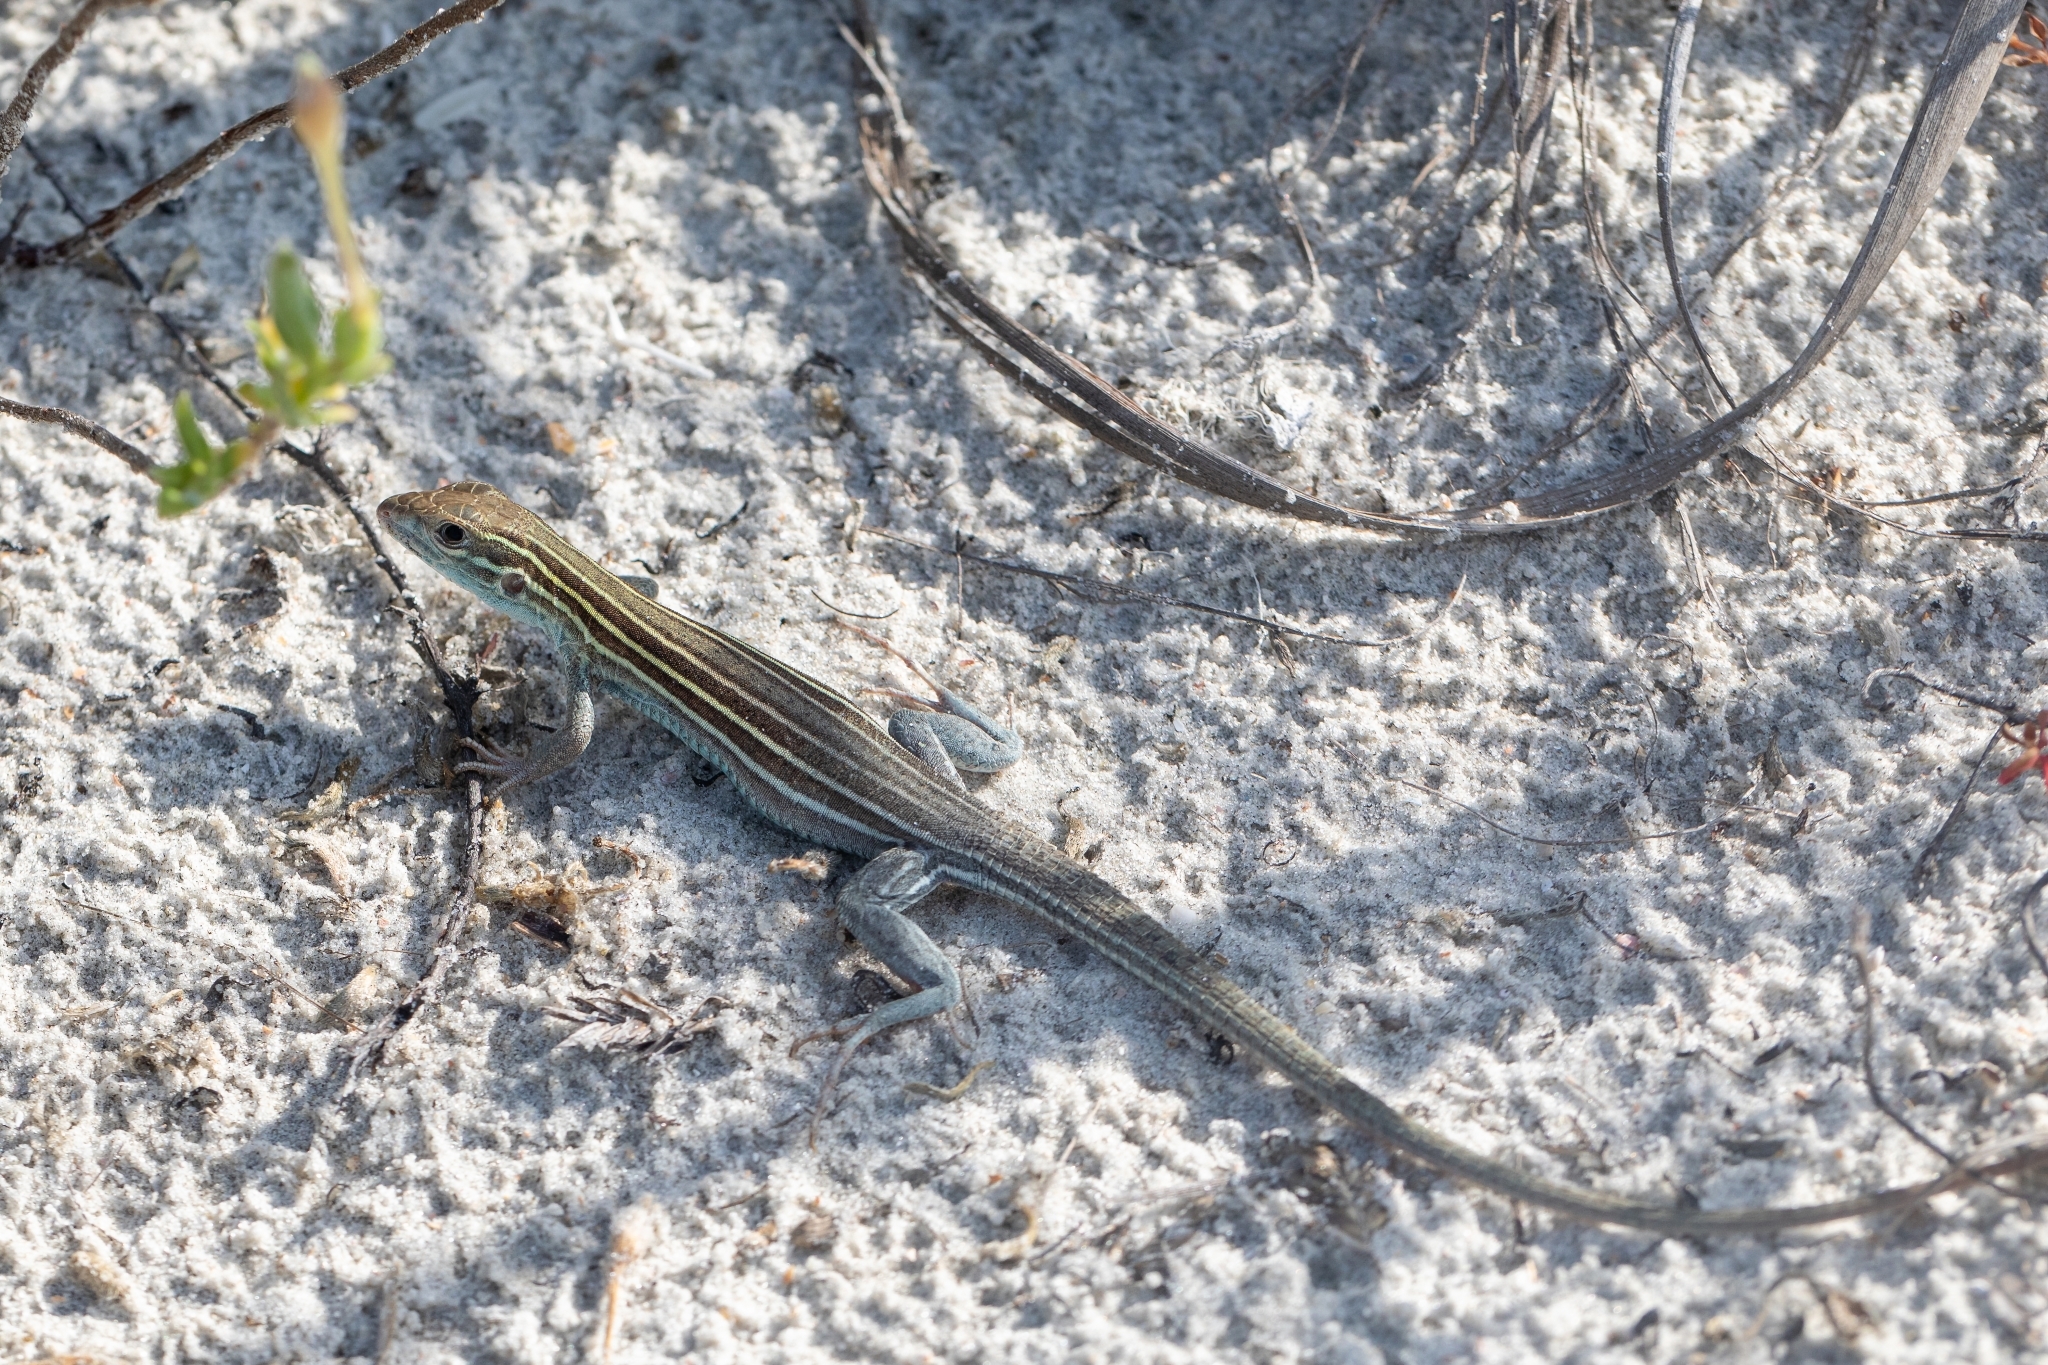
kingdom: Animalia
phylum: Chordata
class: Squamata
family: Teiidae
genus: Aspidoscelis
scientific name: Aspidoscelis sexlineatus
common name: Six-lined racerunner
